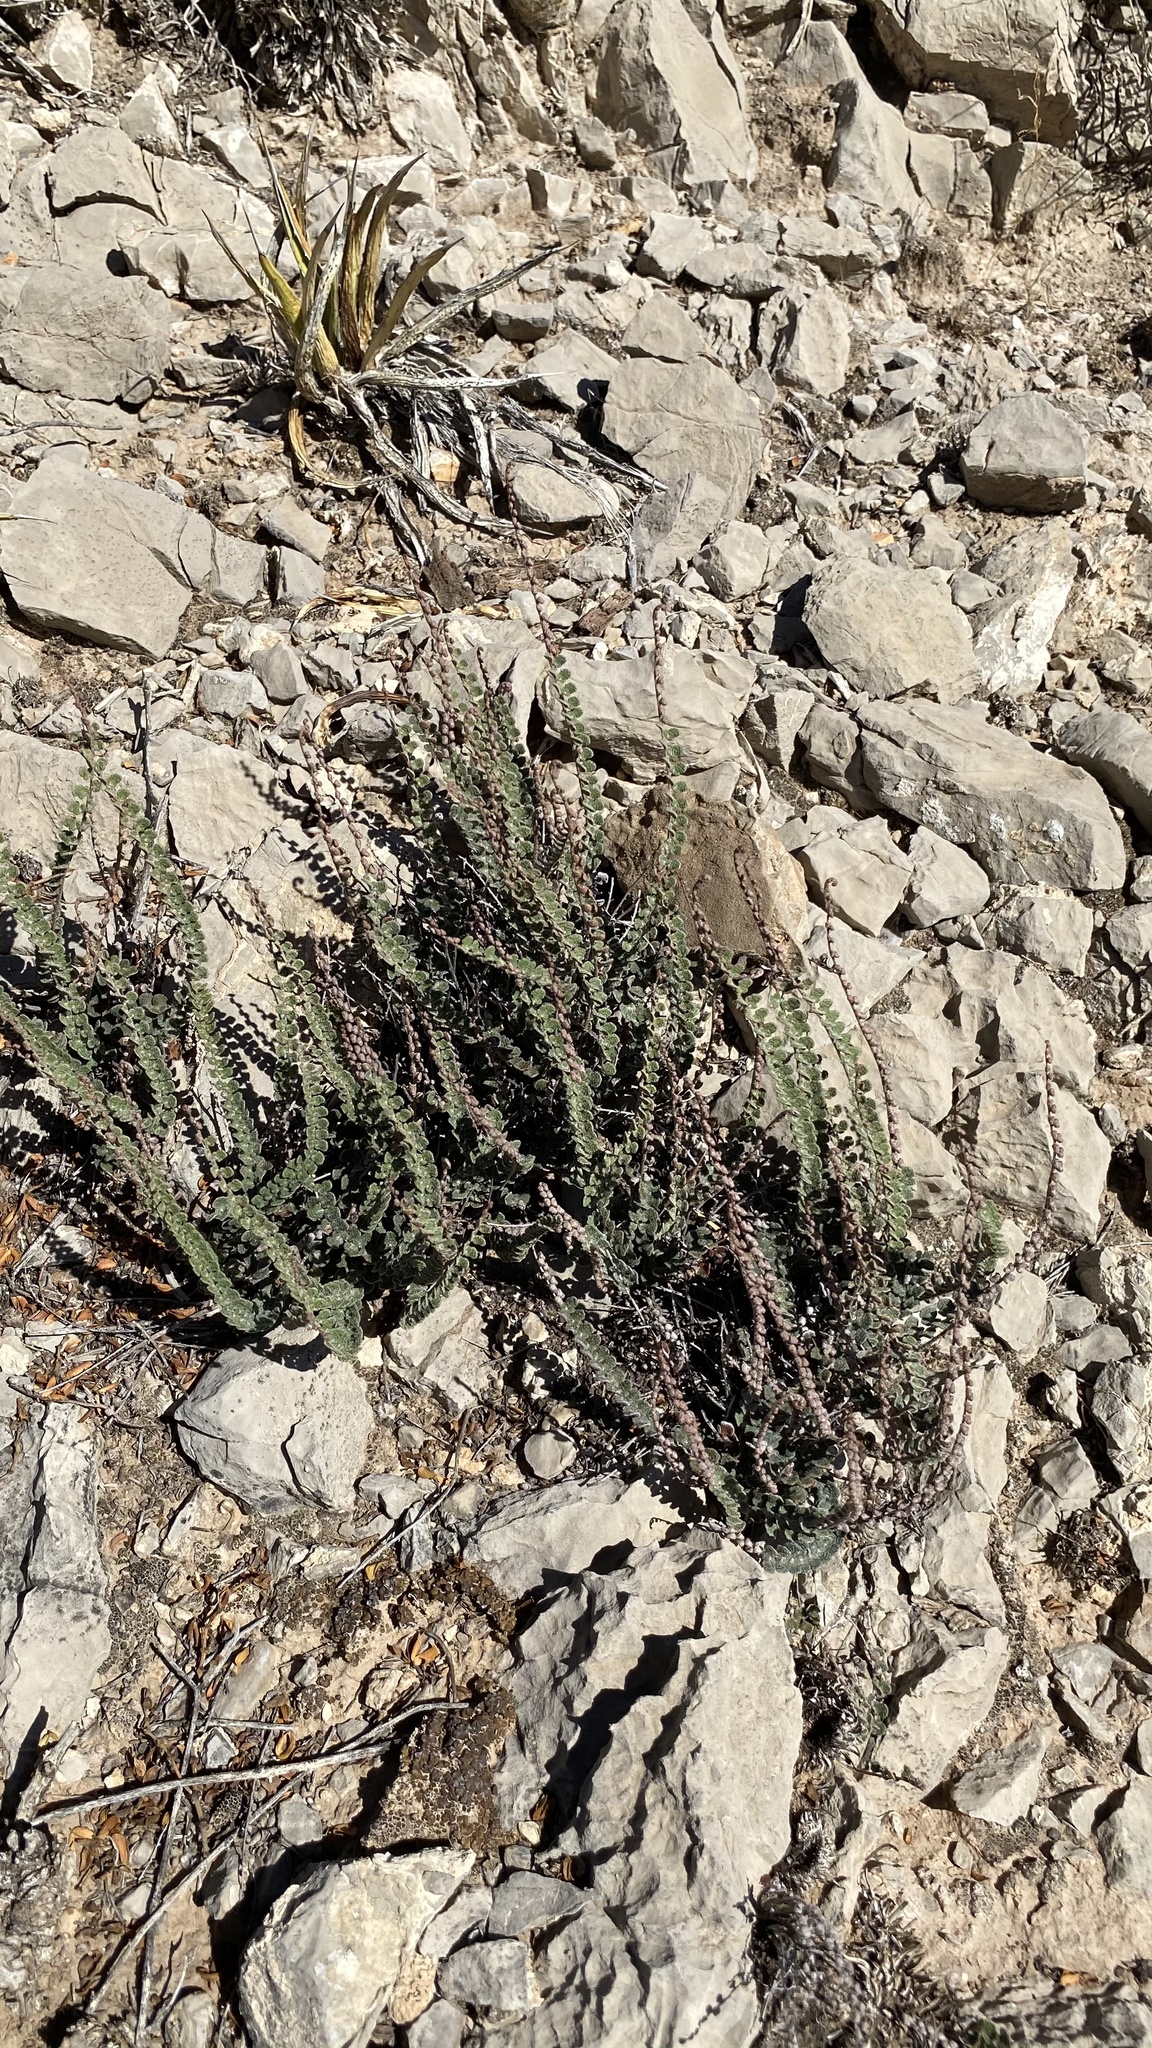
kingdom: Plantae
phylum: Tracheophyta
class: Polypodiopsida
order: Polypodiales
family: Pteridaceae
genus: Astrolepis
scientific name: Astrolepis cochisensis
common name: Scaly cloak fern
